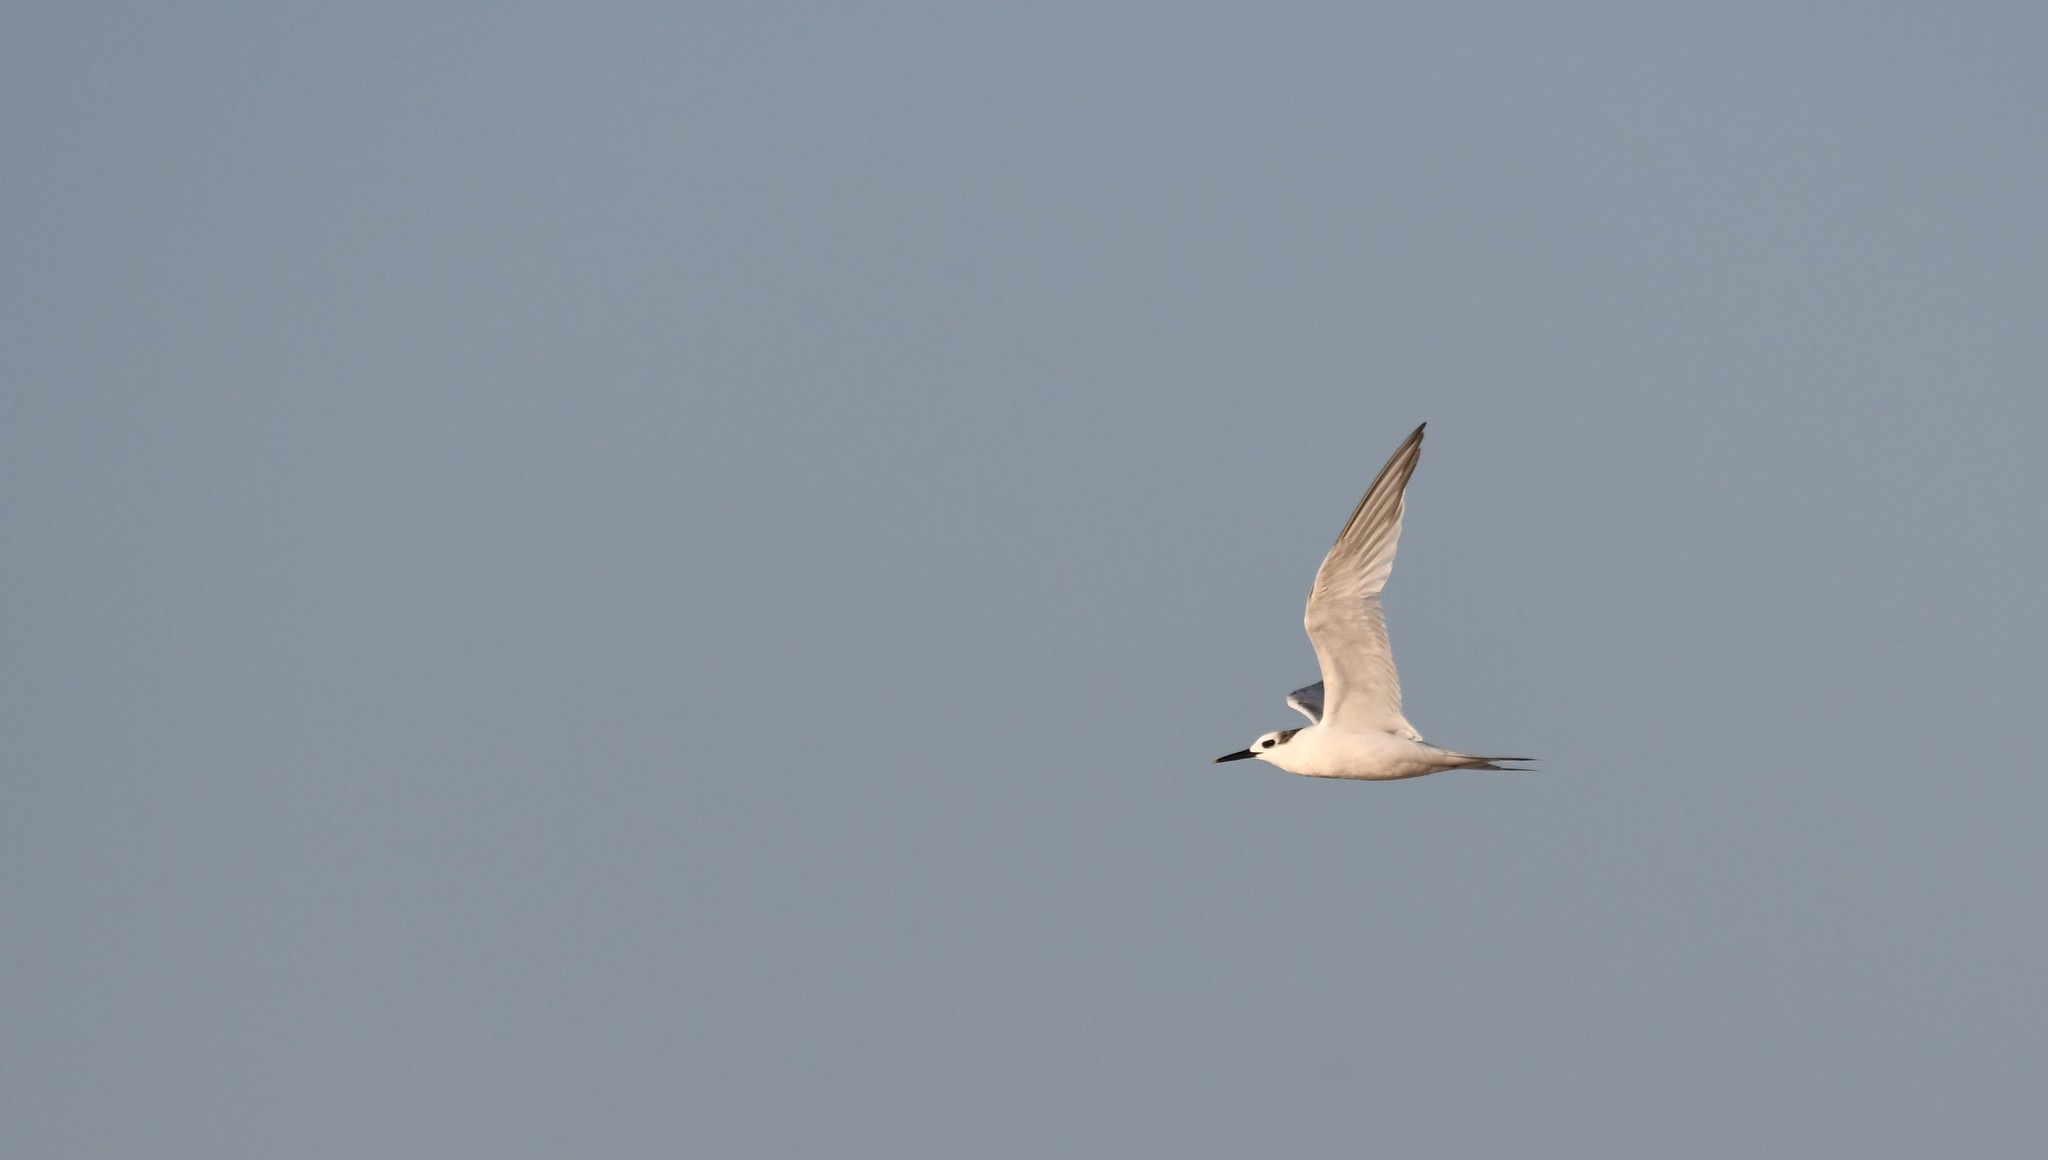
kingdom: Animalia
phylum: Chordata
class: Aves
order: Charadriiformes
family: Laridae
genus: Thalasseus
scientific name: Thalasseus sandvicensis
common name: Sandwich tern
